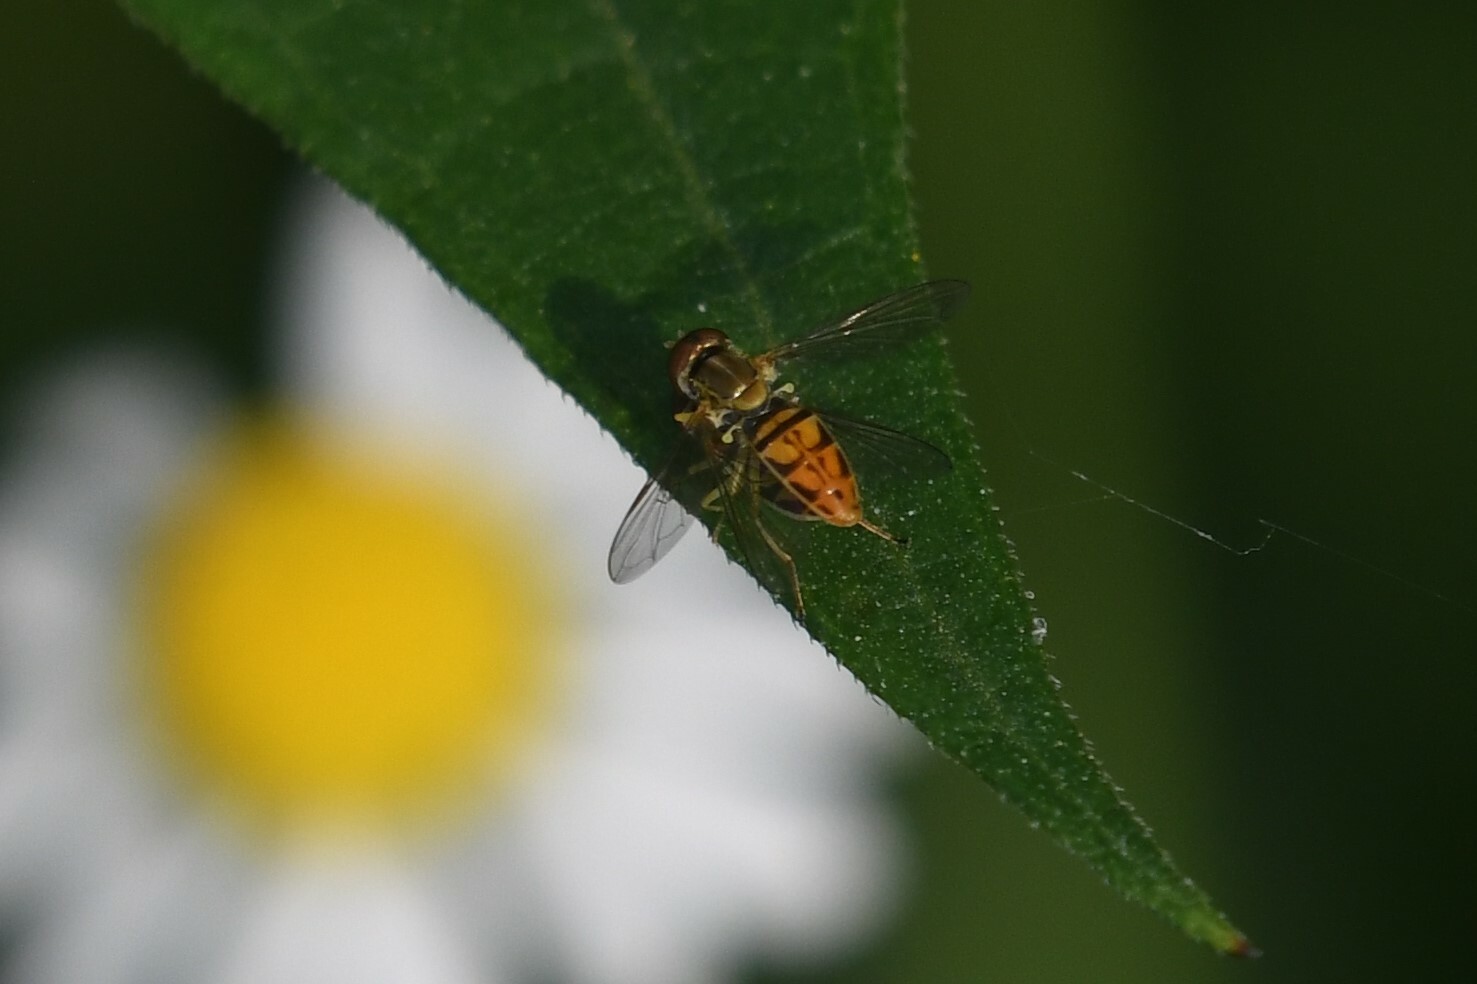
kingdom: Animalia
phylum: Arthropoda
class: Insecta
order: Diptera
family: Syrphidae
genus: Toxomerus
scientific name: Toxomerus marginatus
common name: Syrphid fly
